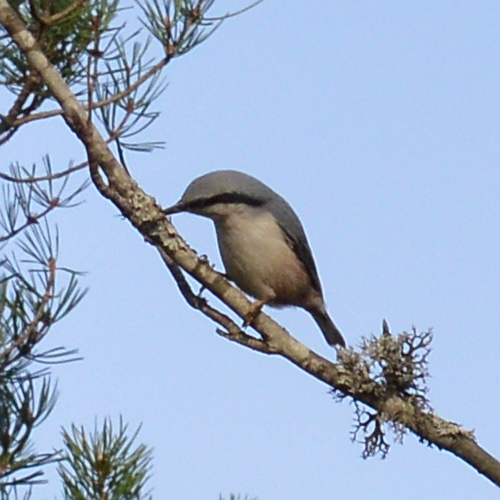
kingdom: Animalia
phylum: Chordata
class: Aves
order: Passeriformes
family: Sittidae
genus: Sitta
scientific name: Sitta europaea
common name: Eurasian nuthatch
